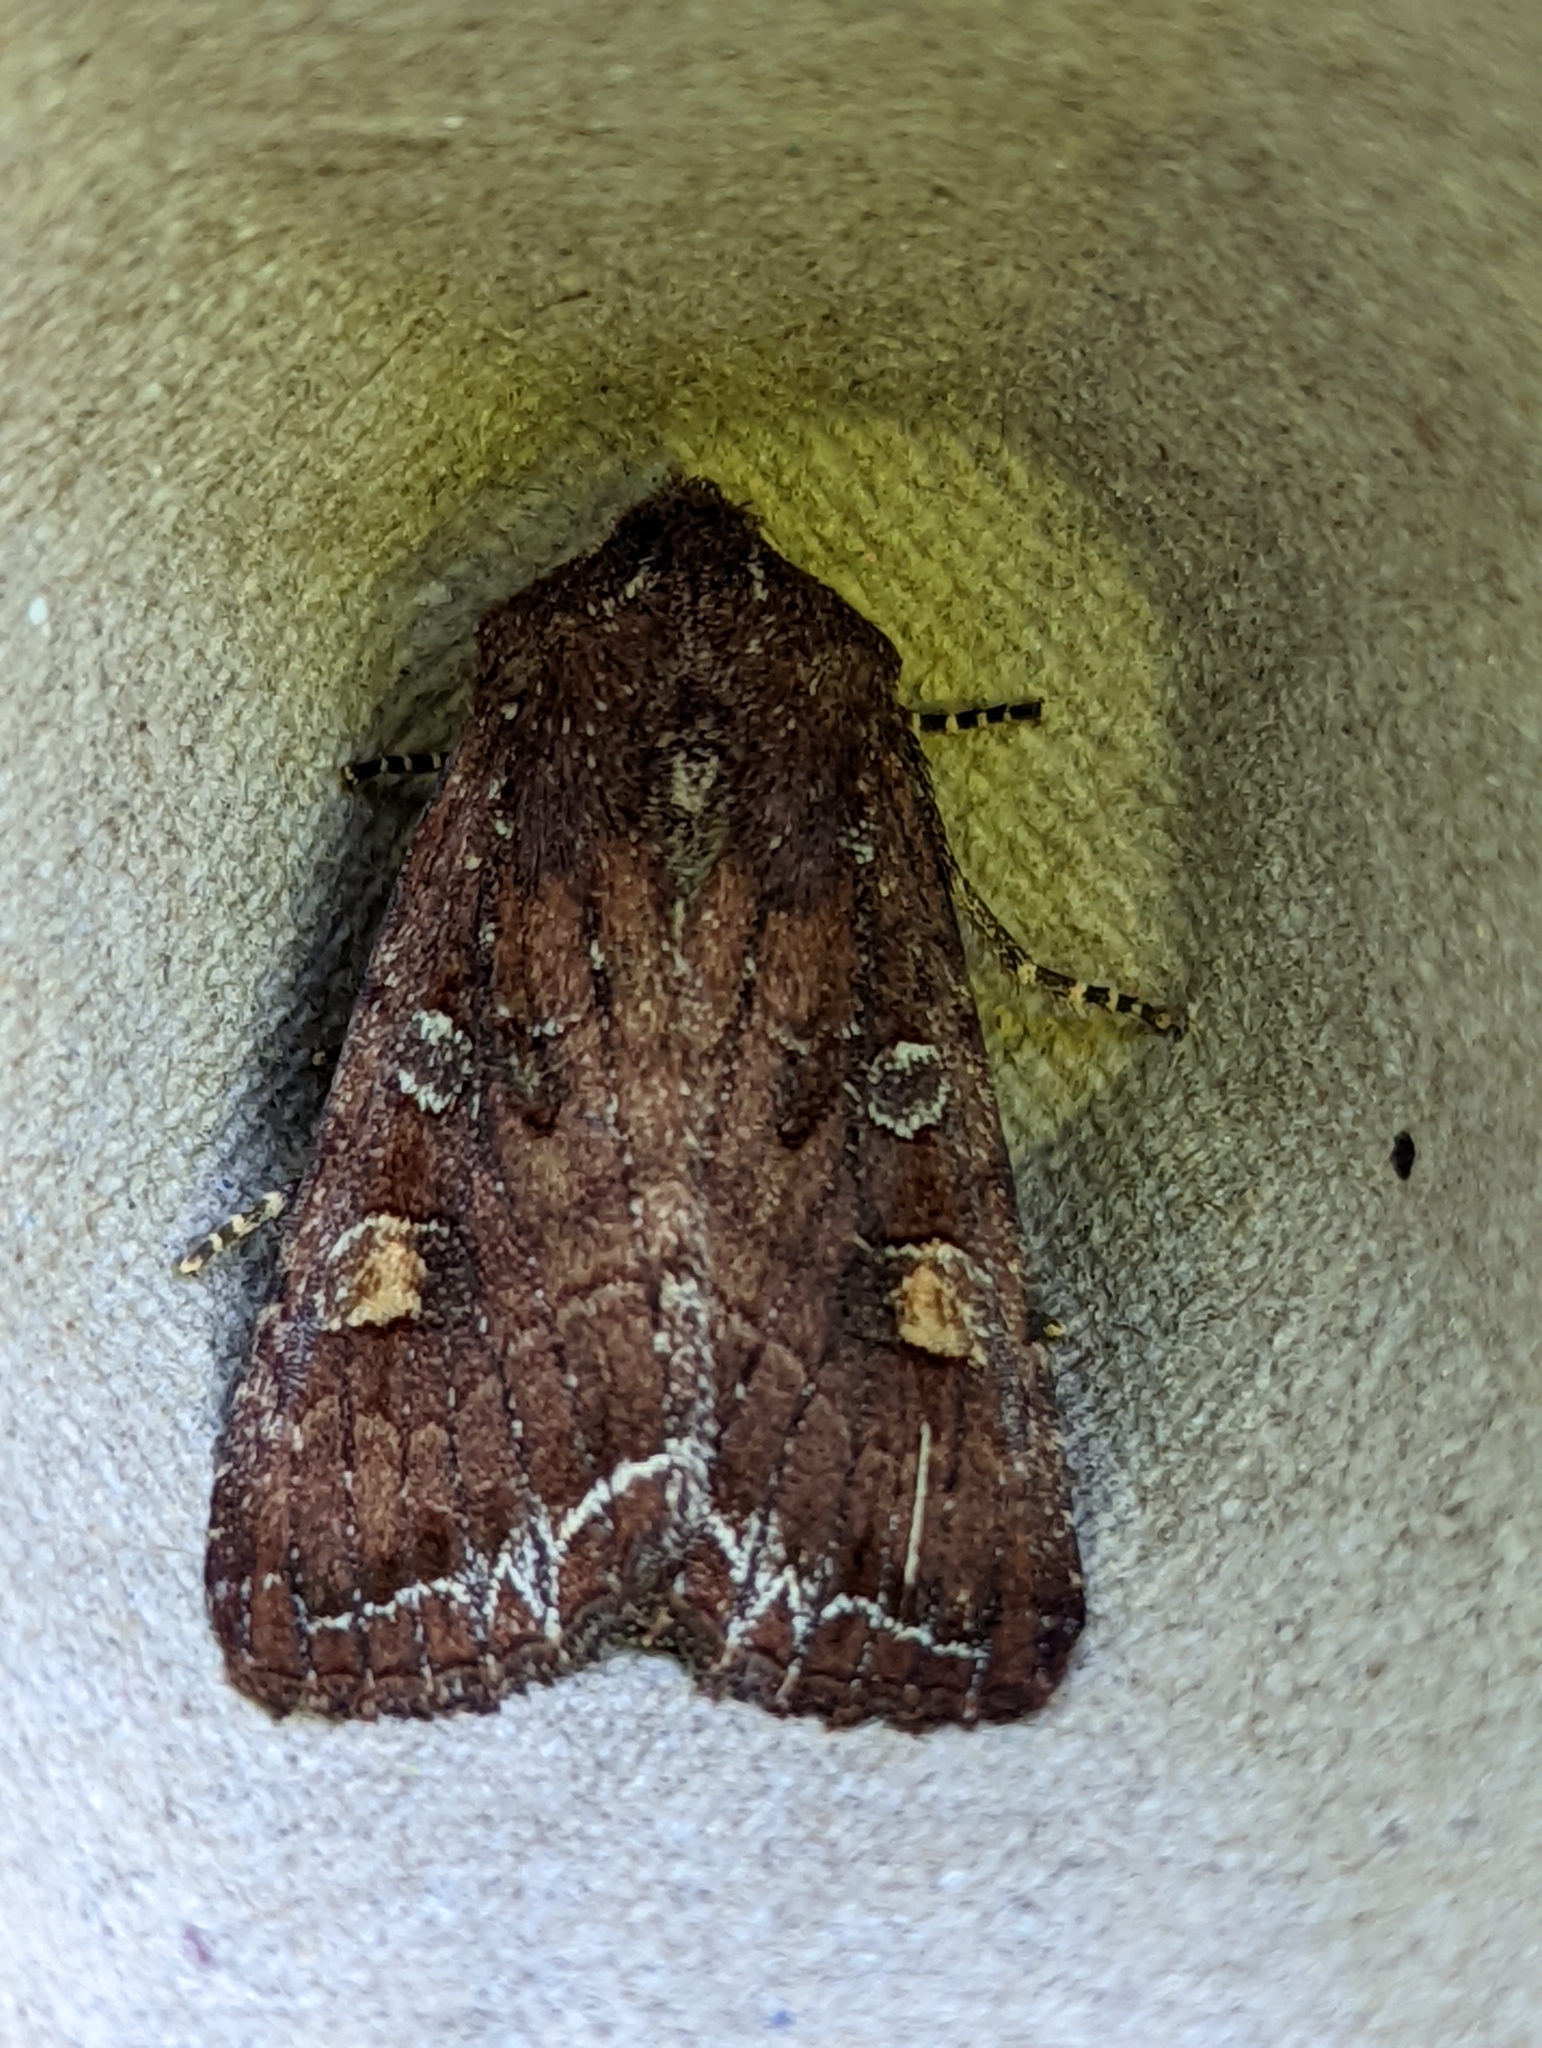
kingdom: Animalia
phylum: Arthropoda
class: Insecta
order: Lepidoptera
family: Noctuidae
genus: Lacanobia
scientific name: Lacanobia oleracea
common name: Bright-line brown-eye
